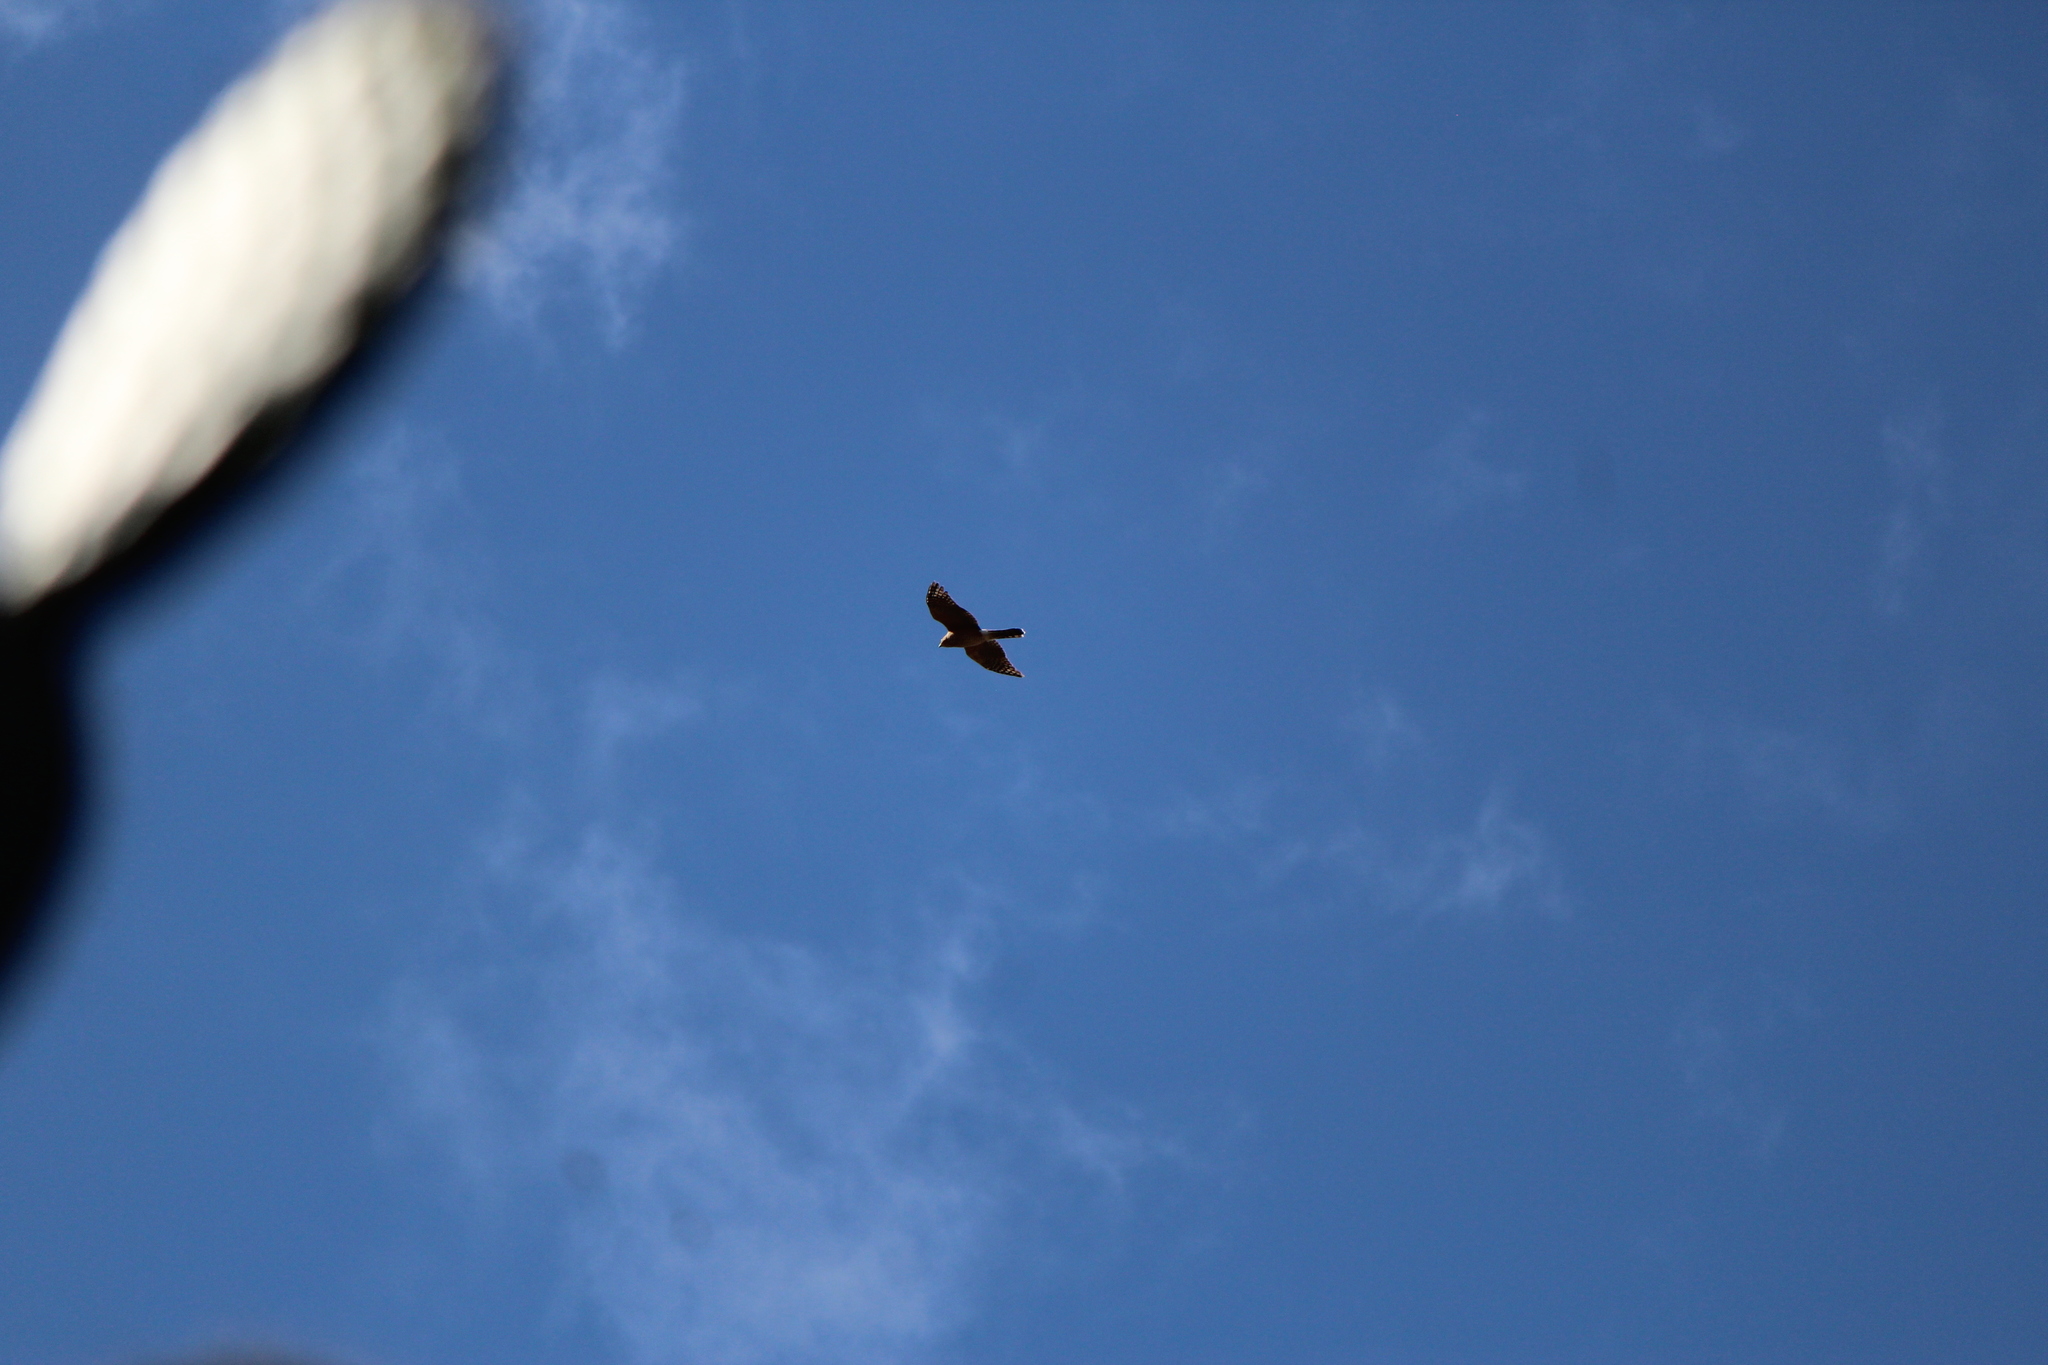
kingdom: Animalia
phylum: Chordata
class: Aves
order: Accipitriformes
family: Accipitridae
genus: Accipiter
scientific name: Accipiter cooperii
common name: Cooper's hawk
